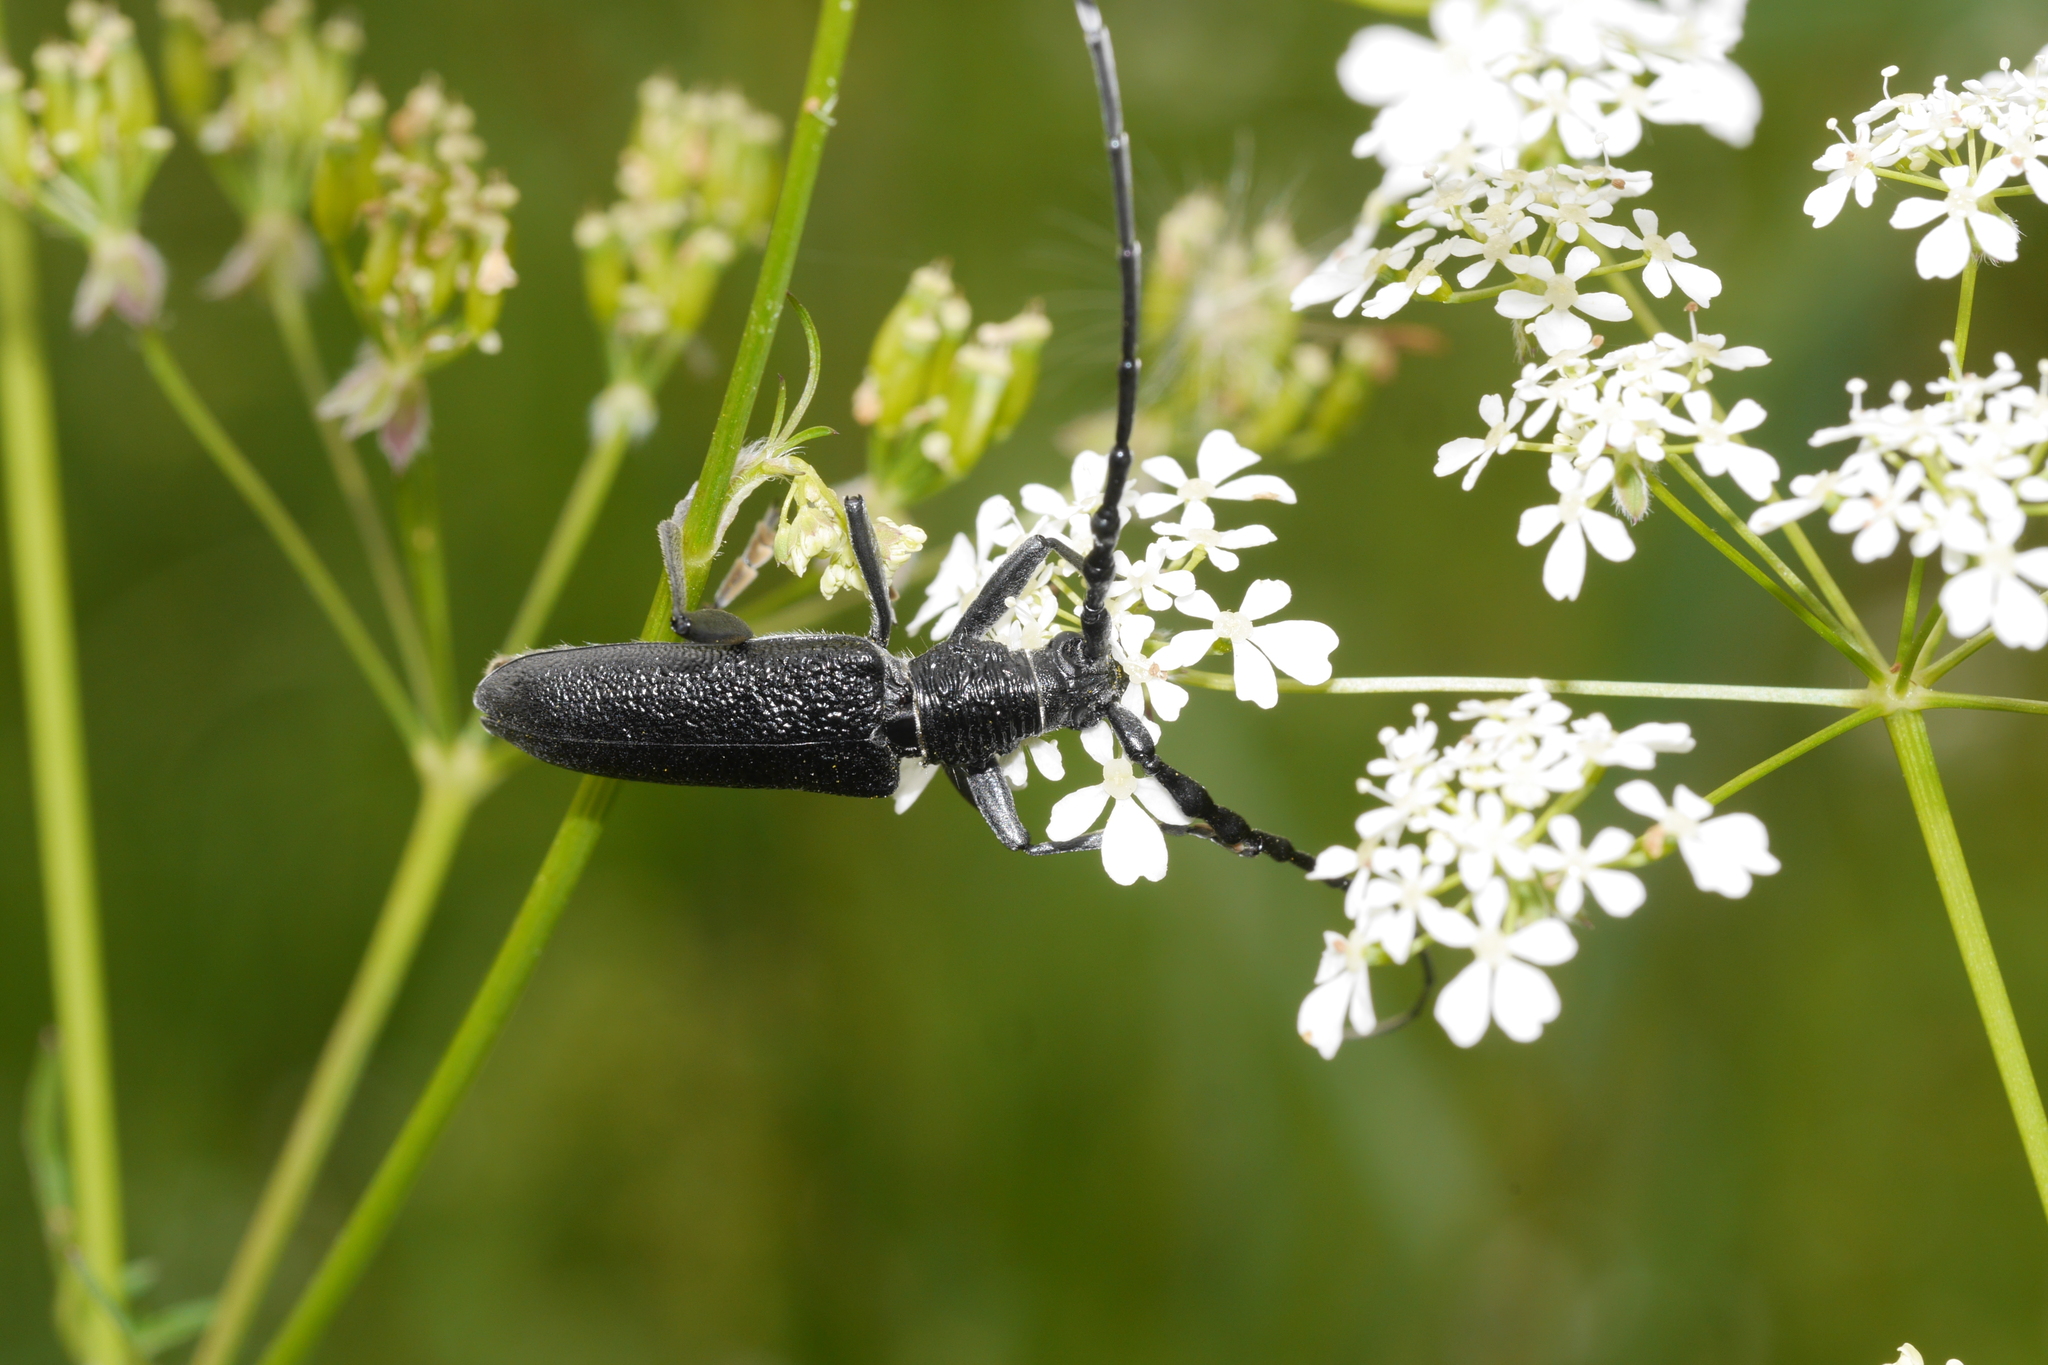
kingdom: Animalia
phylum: Arthropoda
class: Insecta
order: Coleoptera
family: Cerambycidae
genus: Cerambyx
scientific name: Cerambyx scopolii
